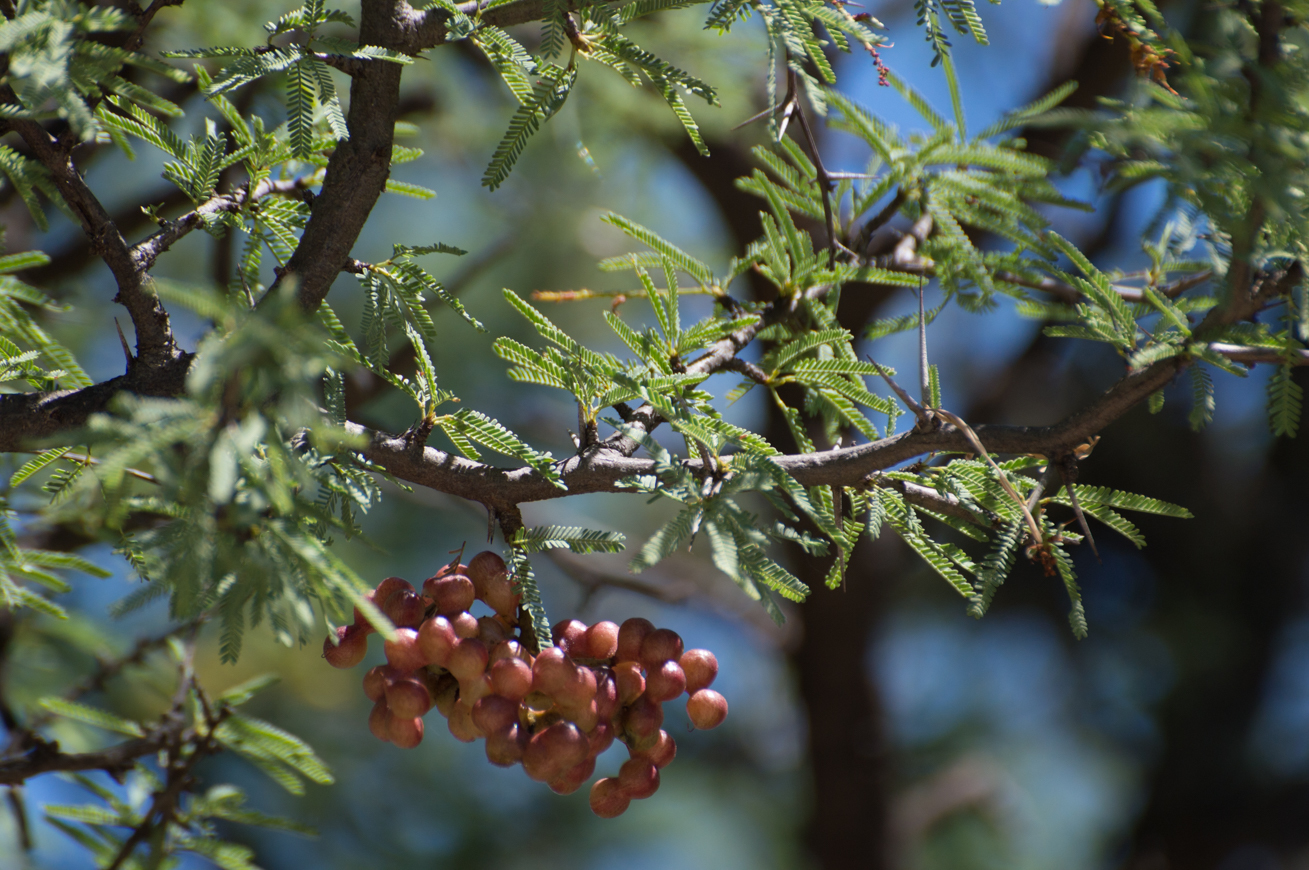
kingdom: Plantae
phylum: Tracheophyta
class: Magnoliopsida
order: Fabales
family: Fabaceae
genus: Prosopis
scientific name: Prosopis torquata
